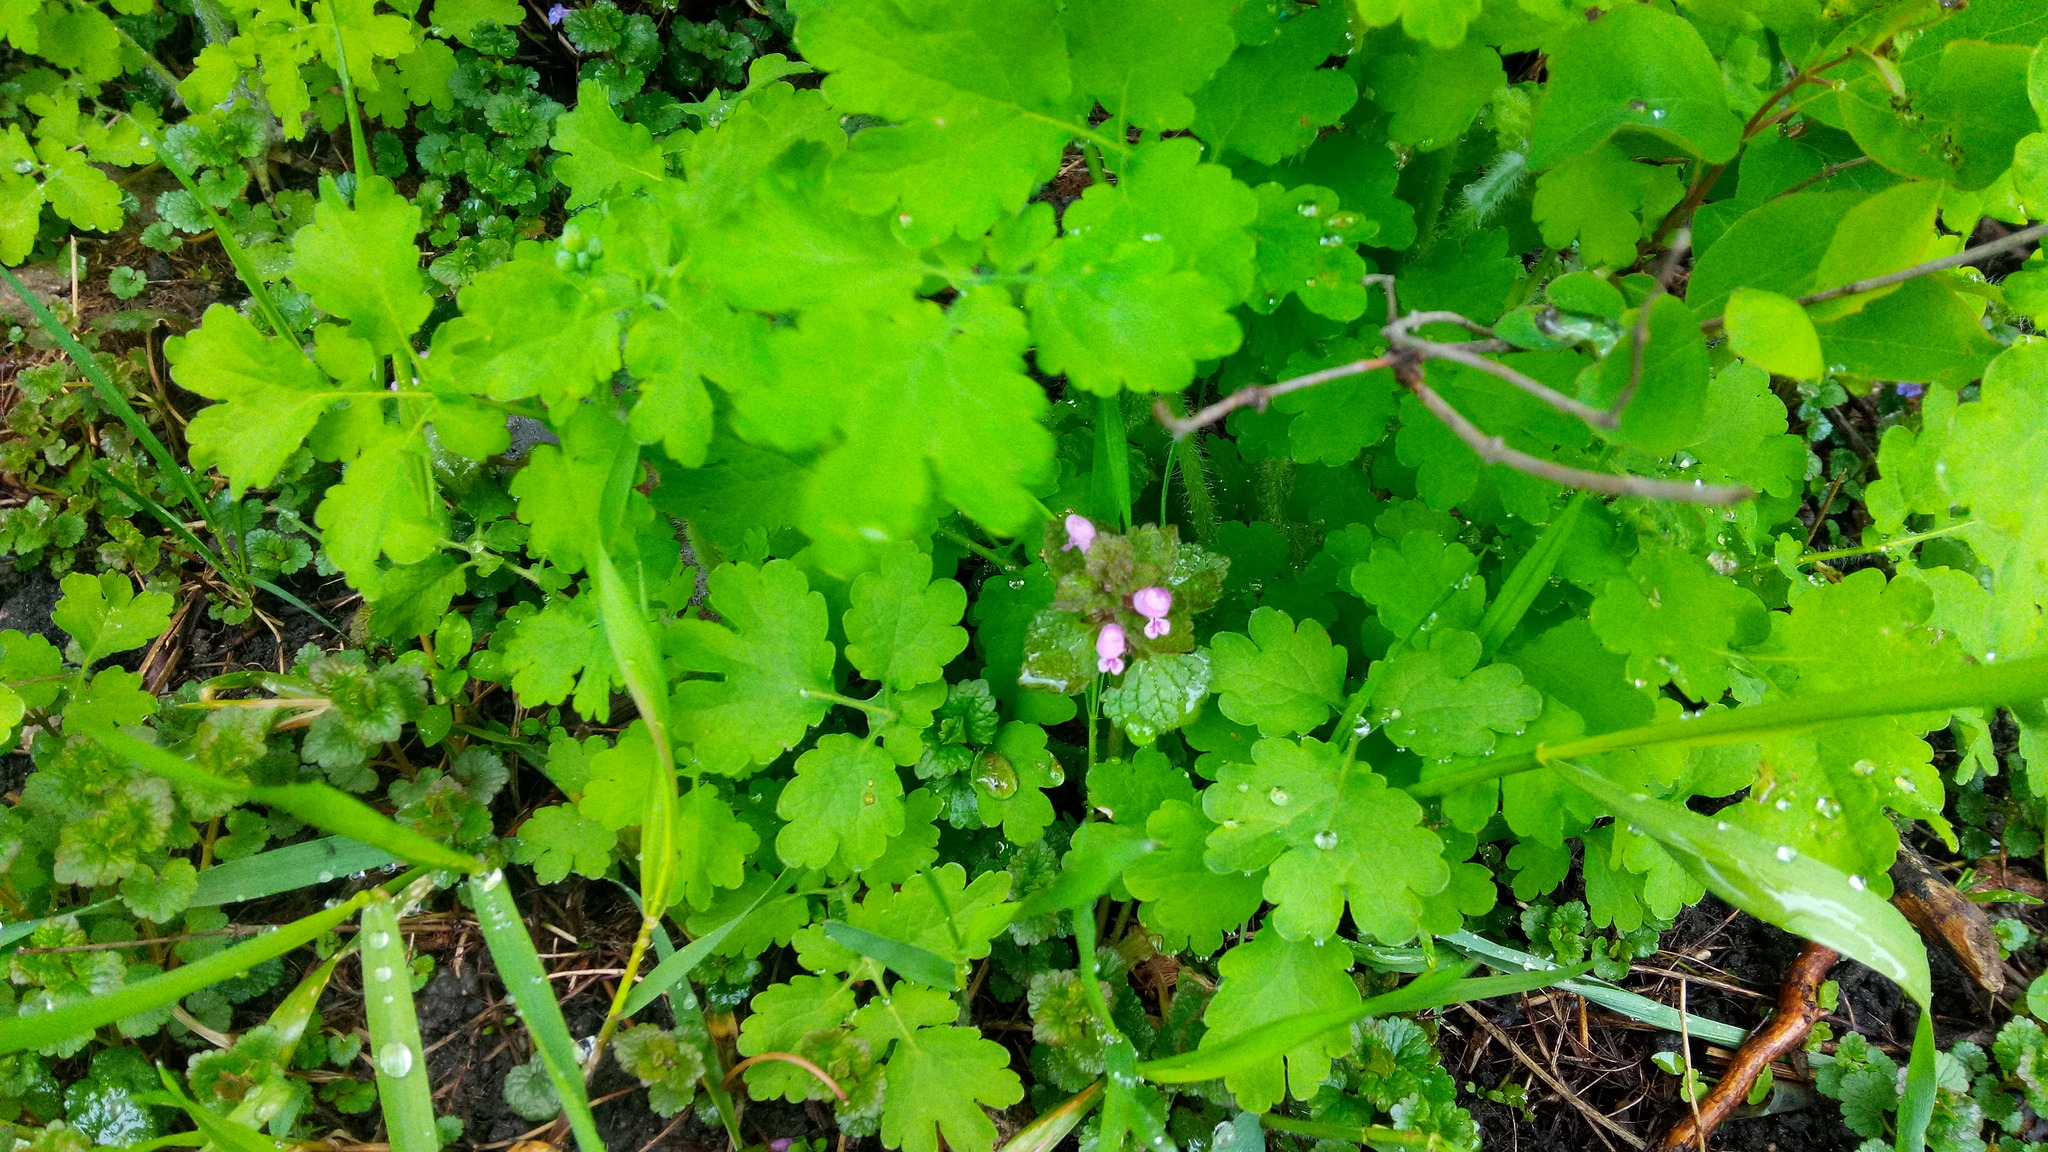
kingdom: Plantae
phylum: Tracheophyta
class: Magnoliopsida
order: Lamiales
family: Lamiaceae
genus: Lamium
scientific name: Lamium purpureum
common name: Red dead-nettle
